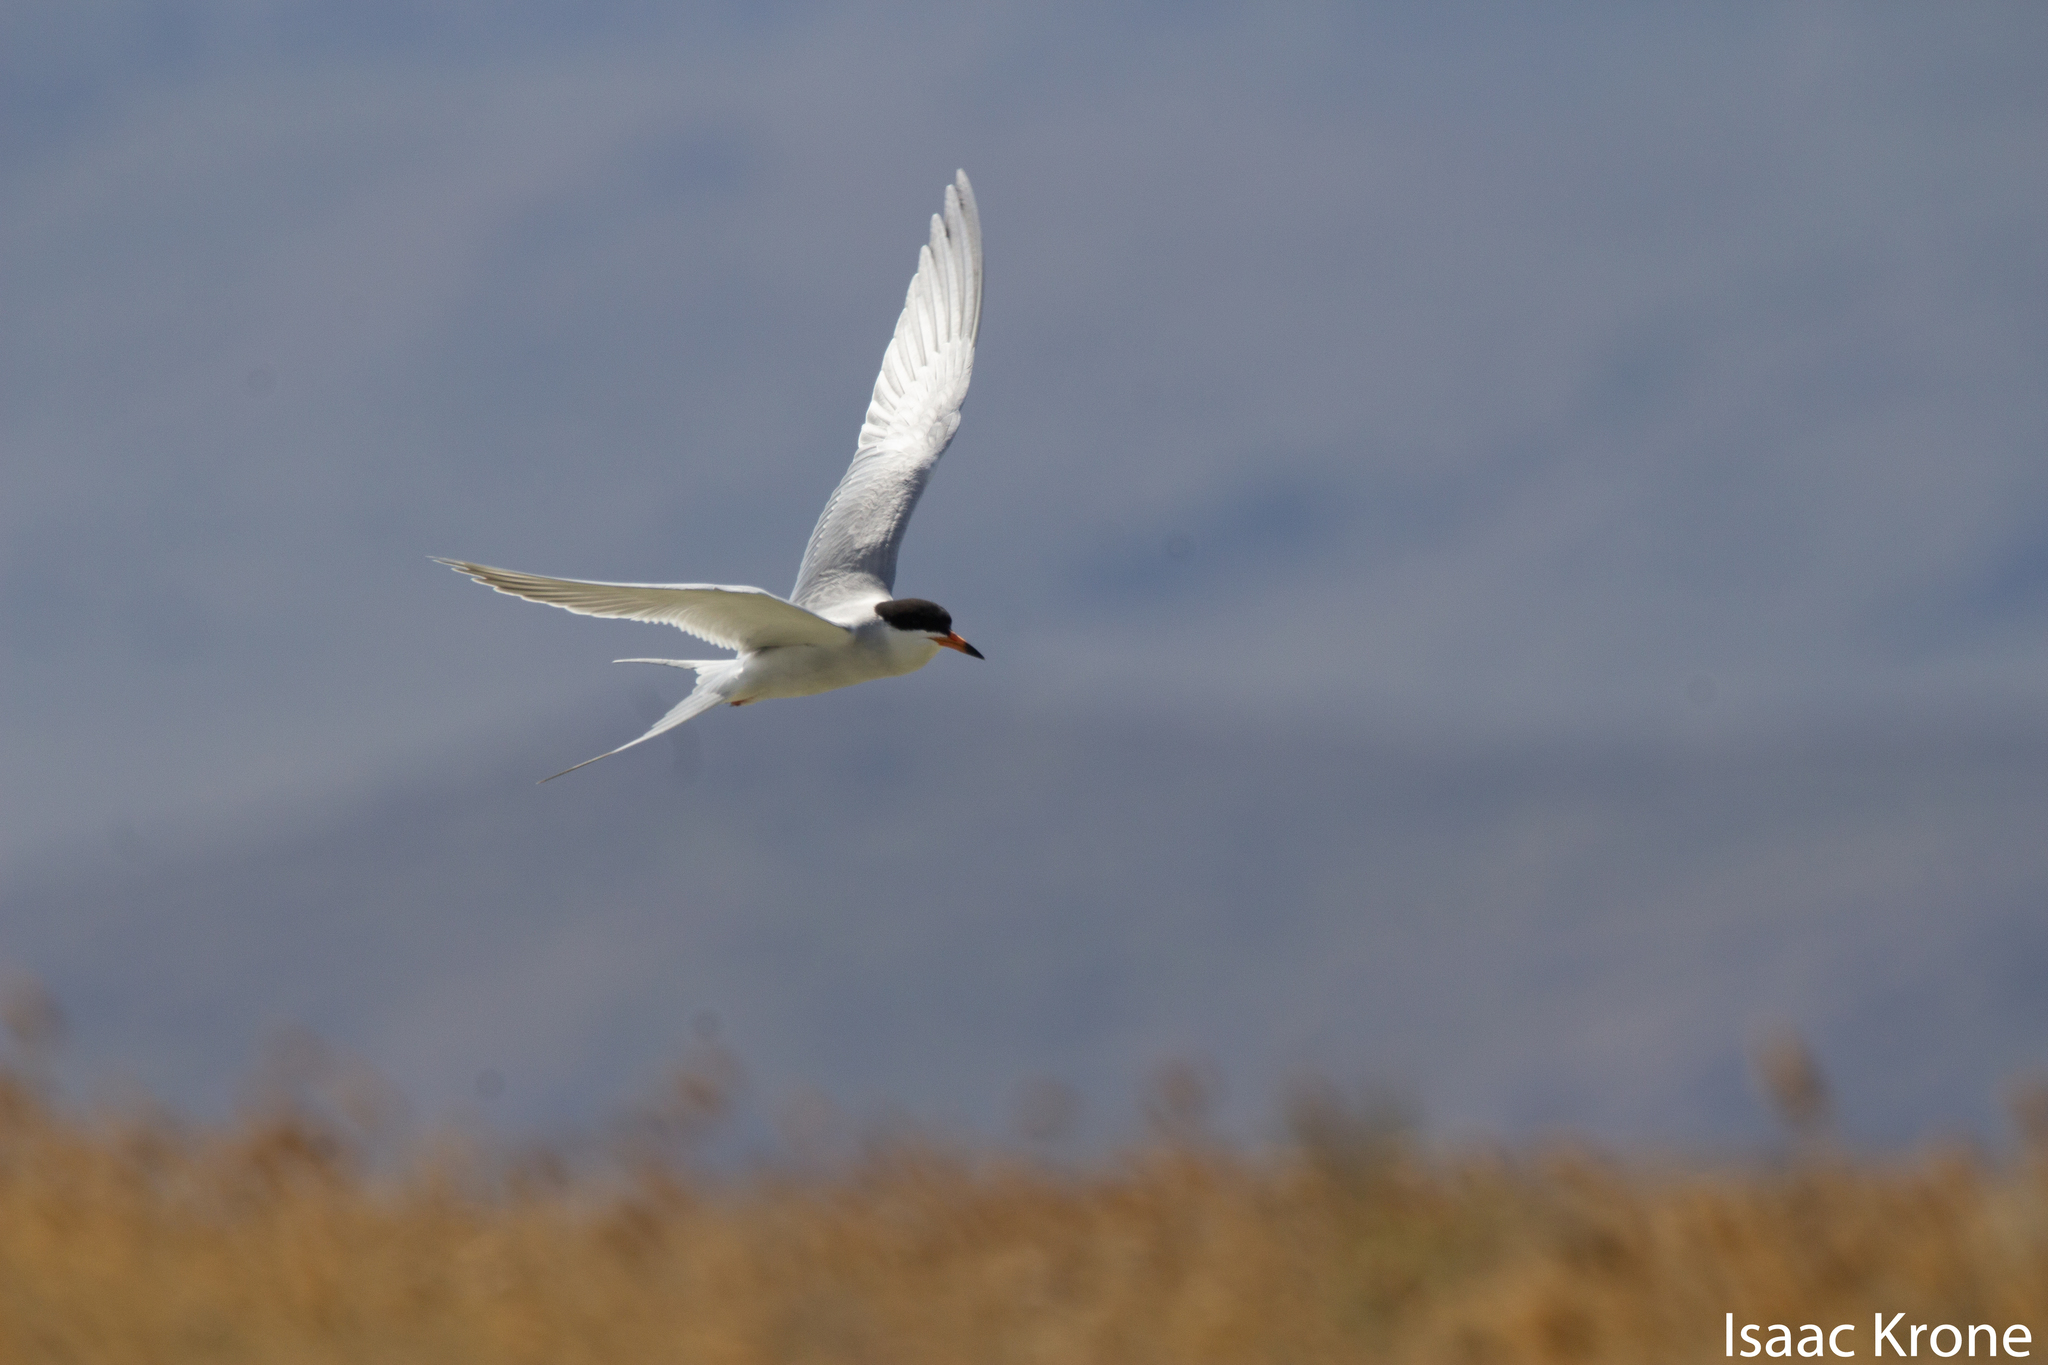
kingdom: Animalia
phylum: Chordata
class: Aves
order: Charadriiformes
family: Laridae
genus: Sterna
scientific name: Sterna forsteri
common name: Forster's tern
